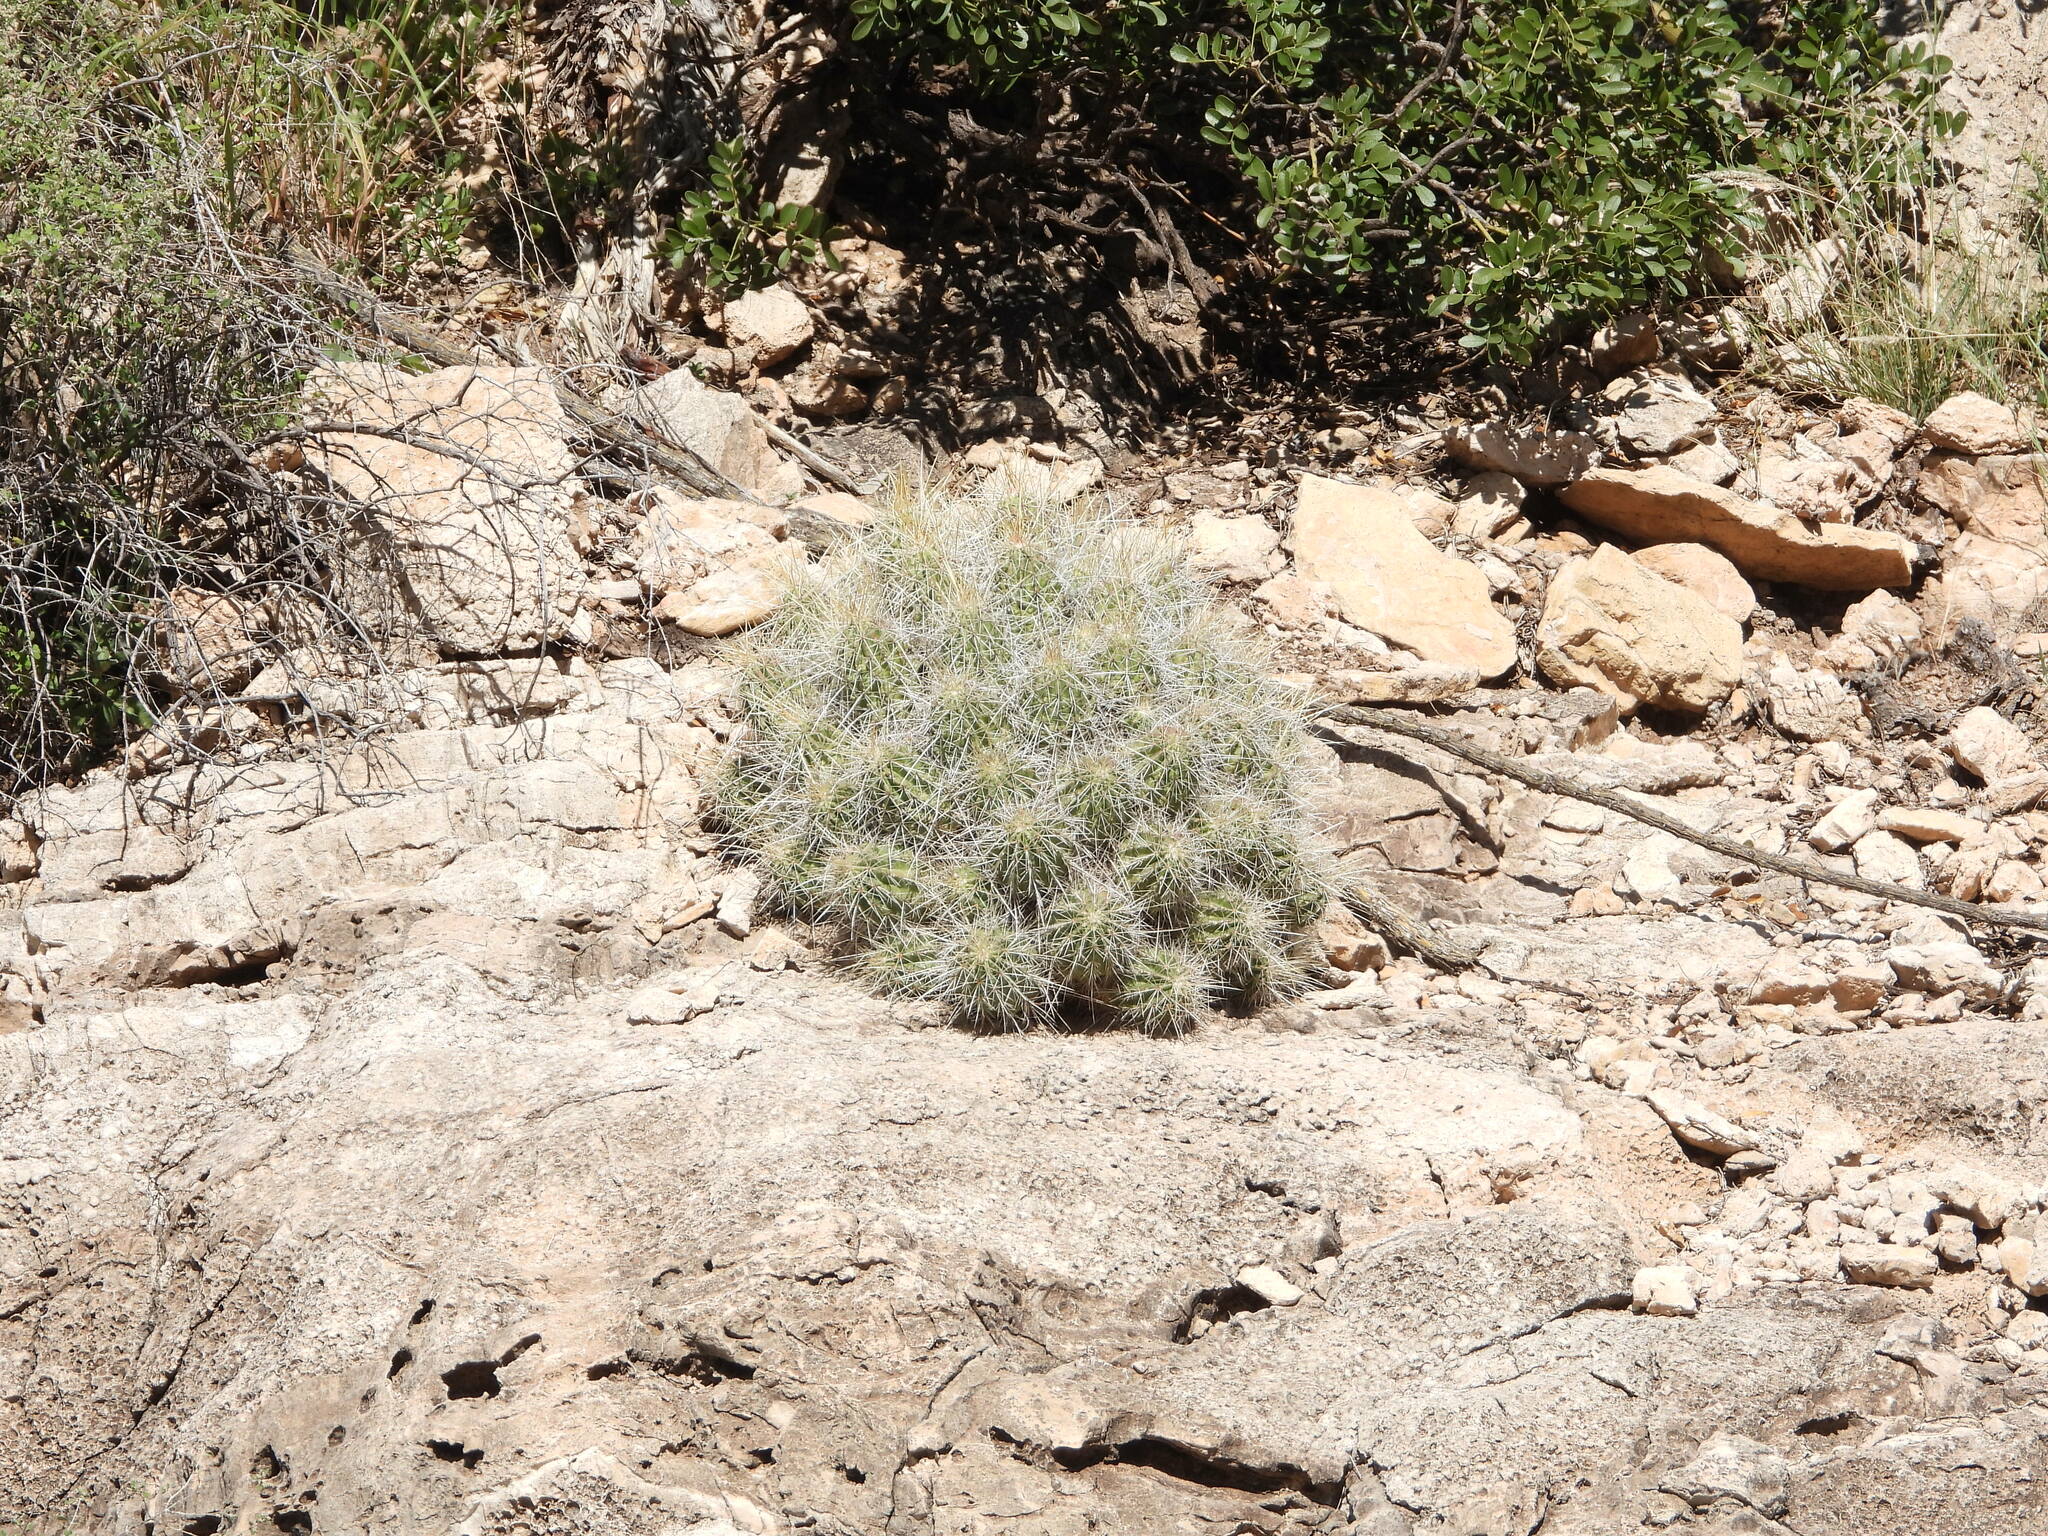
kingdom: Plantae
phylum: Tracheophyta
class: Magnoliopsida
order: Caryophyllales
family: Cactaceae
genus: Echinocereus
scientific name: Echinocereus stramineus
